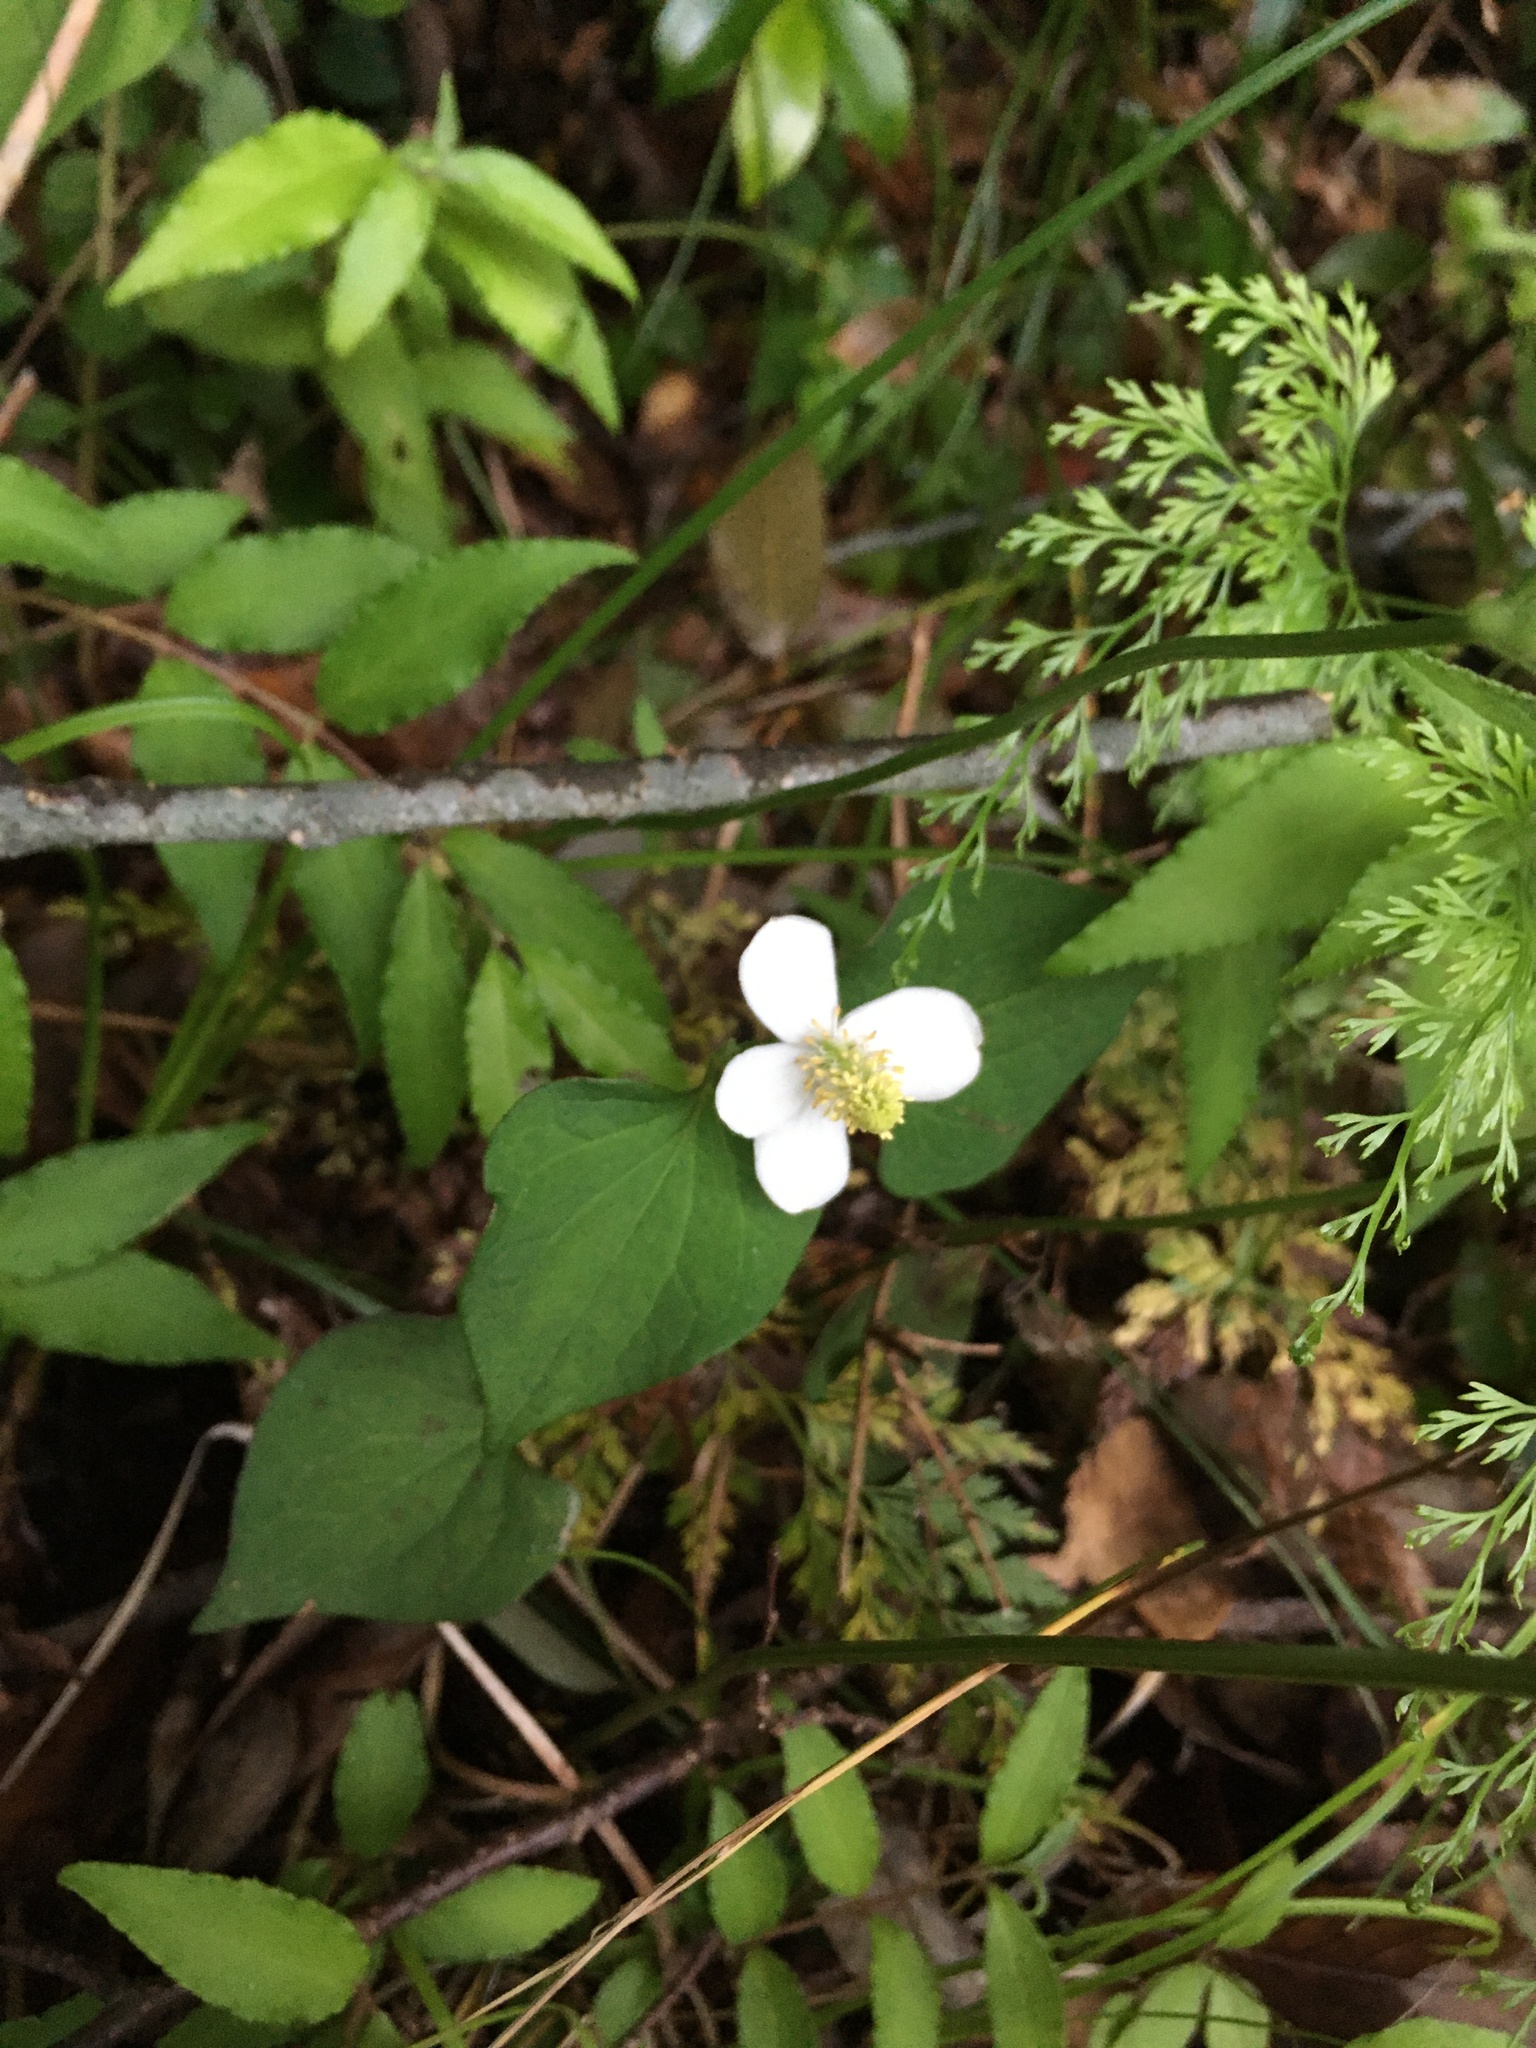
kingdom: Plantae
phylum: Tracheophyta
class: Magnoliopsida
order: Piperales
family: Saururaceae
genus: Houttuynia
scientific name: Houttuynia cordata
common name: Chameleon
